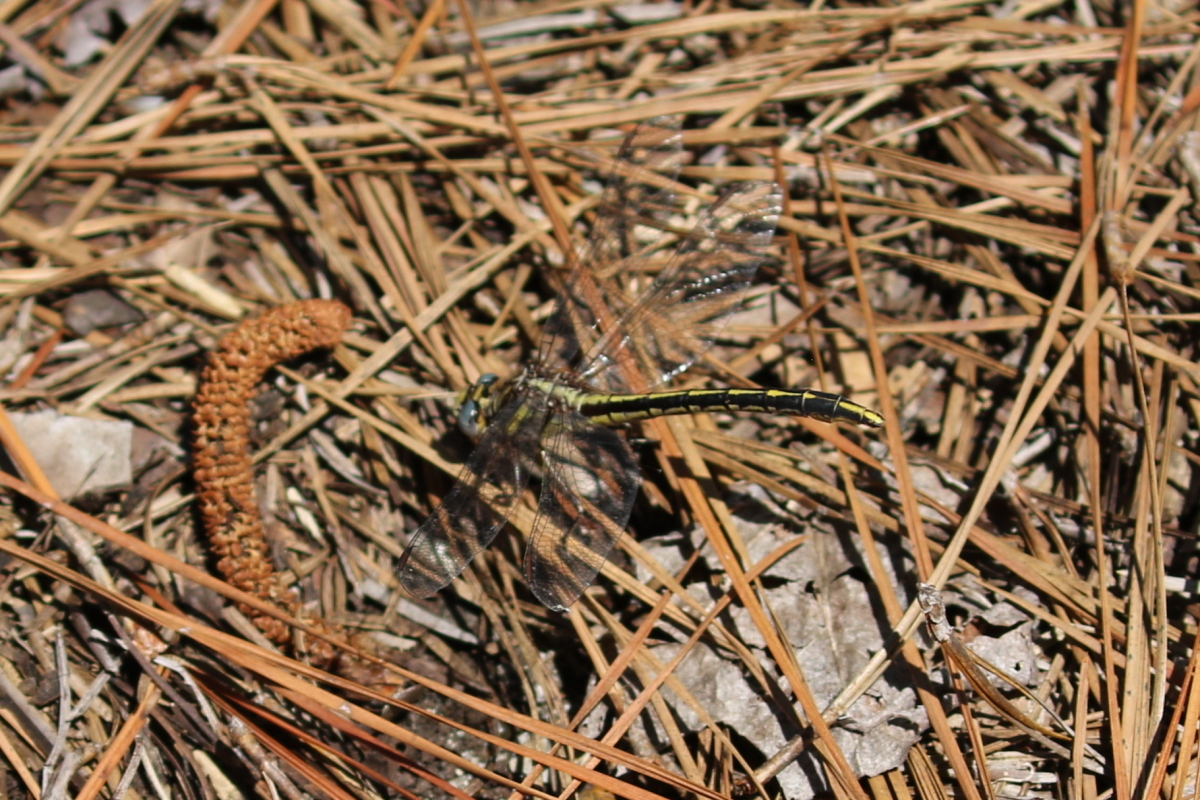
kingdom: Animalia
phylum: Arthropoda
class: Insecta
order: Odonata
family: Gomphidae
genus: Phanogomphus
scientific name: Phanogomphus oklahomensis
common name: Oklahoma clubtail
